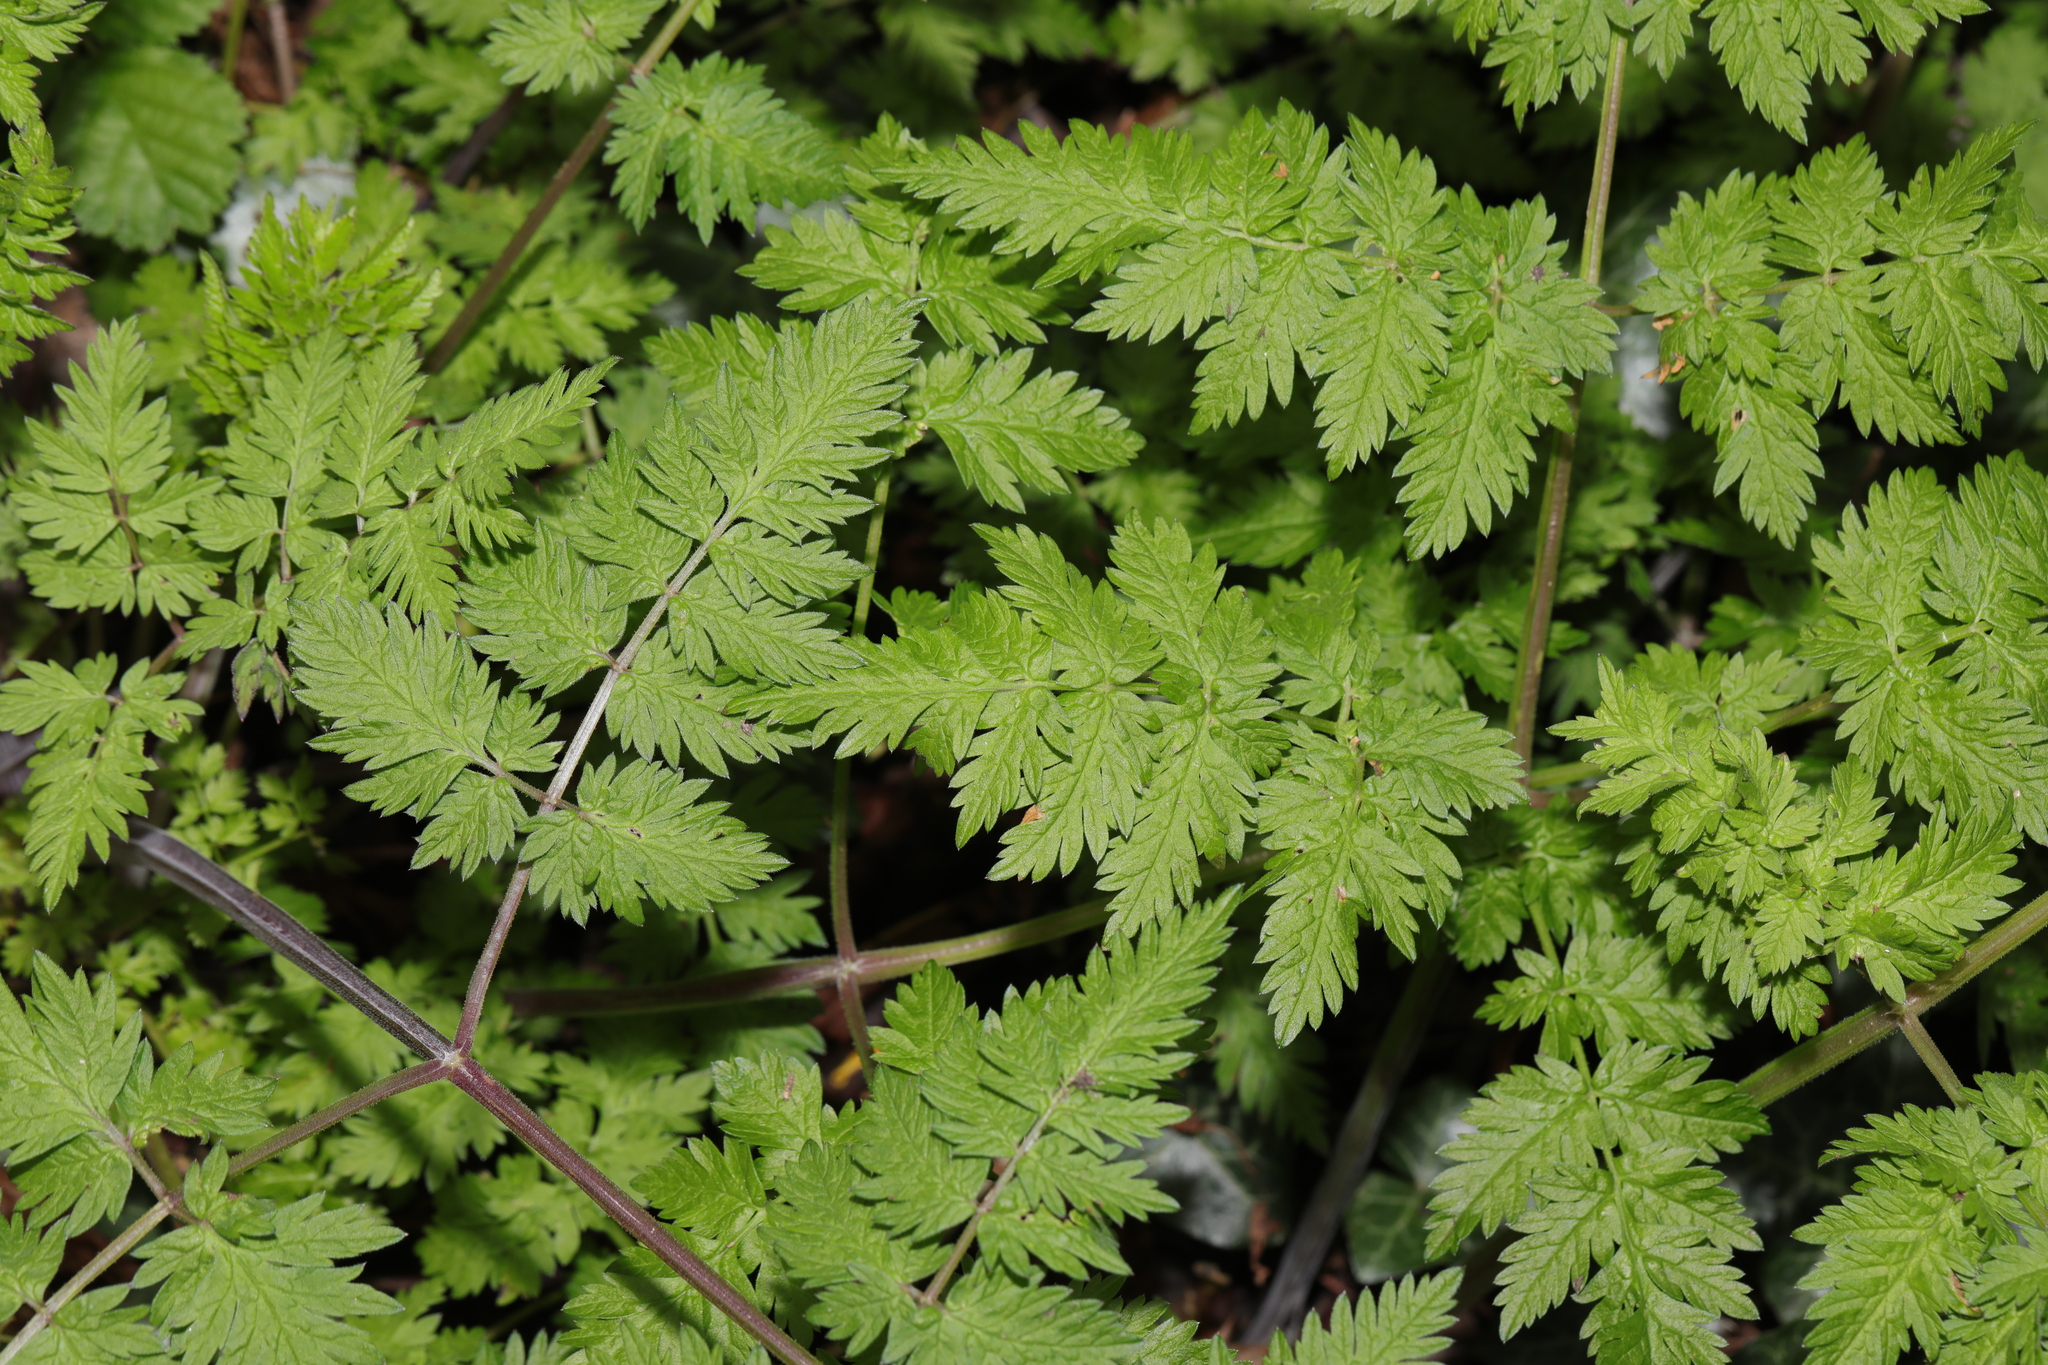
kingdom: Plantae
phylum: Tracheophyta
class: Magnoliopsida
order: Apiales
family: Apiaceae
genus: Anthriscus
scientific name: Anthriscus sylvestris
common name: Cow parsley
